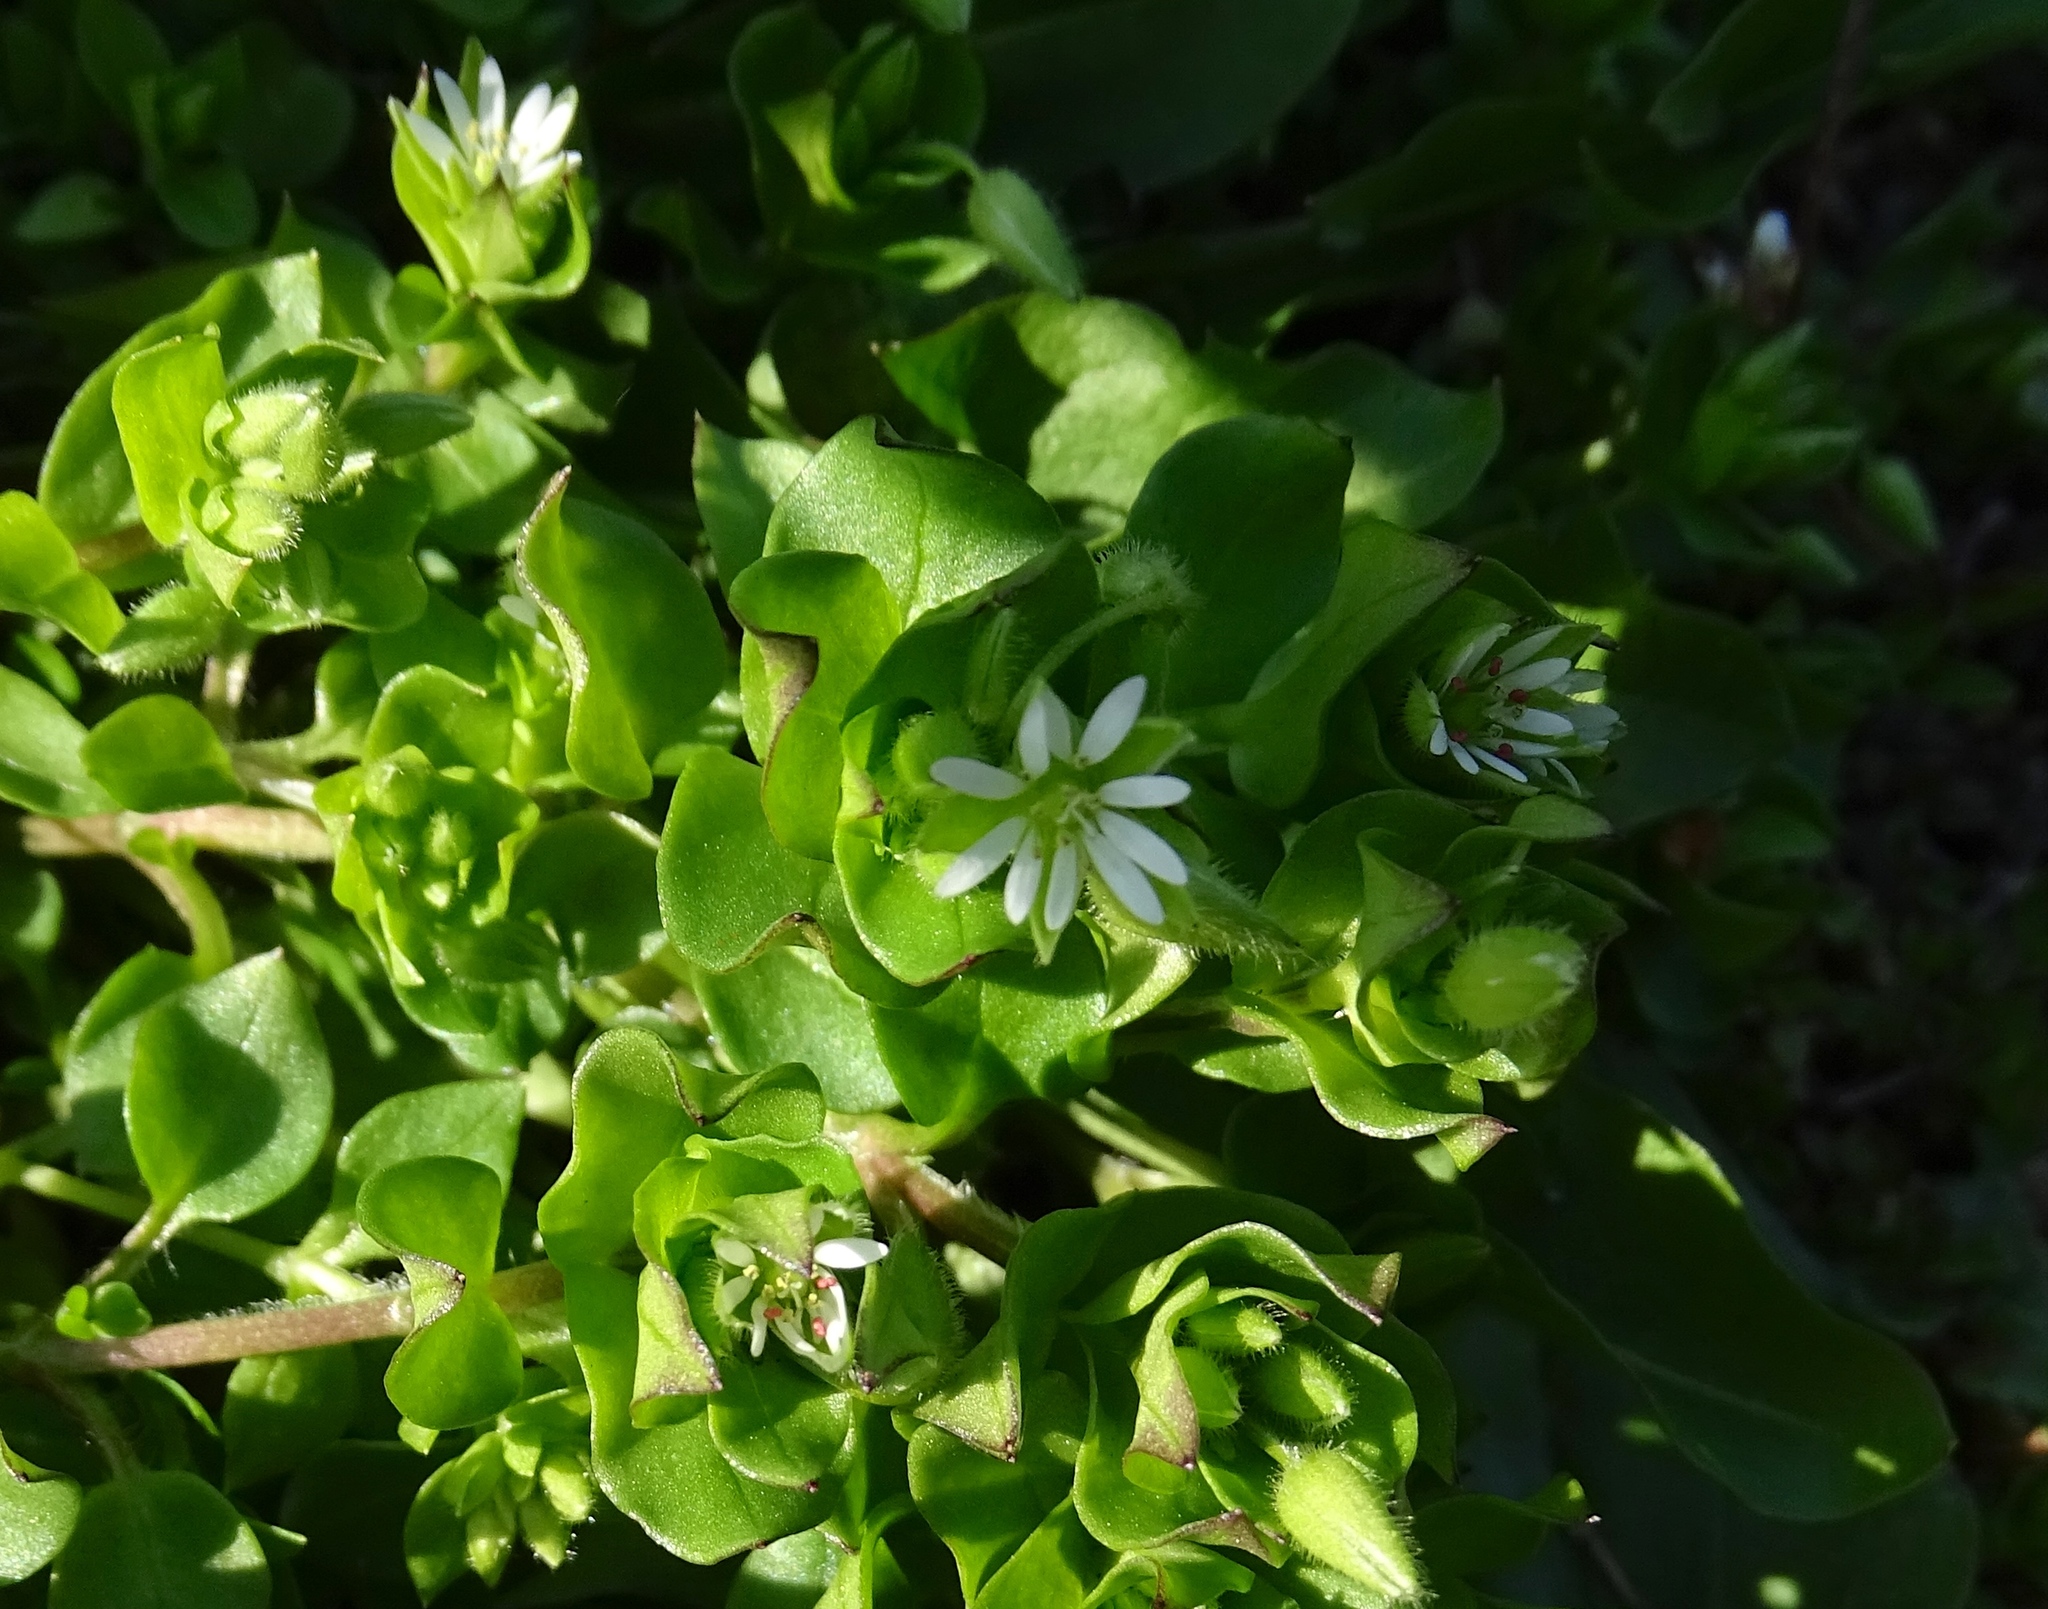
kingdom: Plantae
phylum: Tracheophyta
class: Magnoliopsida
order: Caryophyllales
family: Caryophyllaceae
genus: Stellaria
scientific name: Stellaria media
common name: Common chickweed
